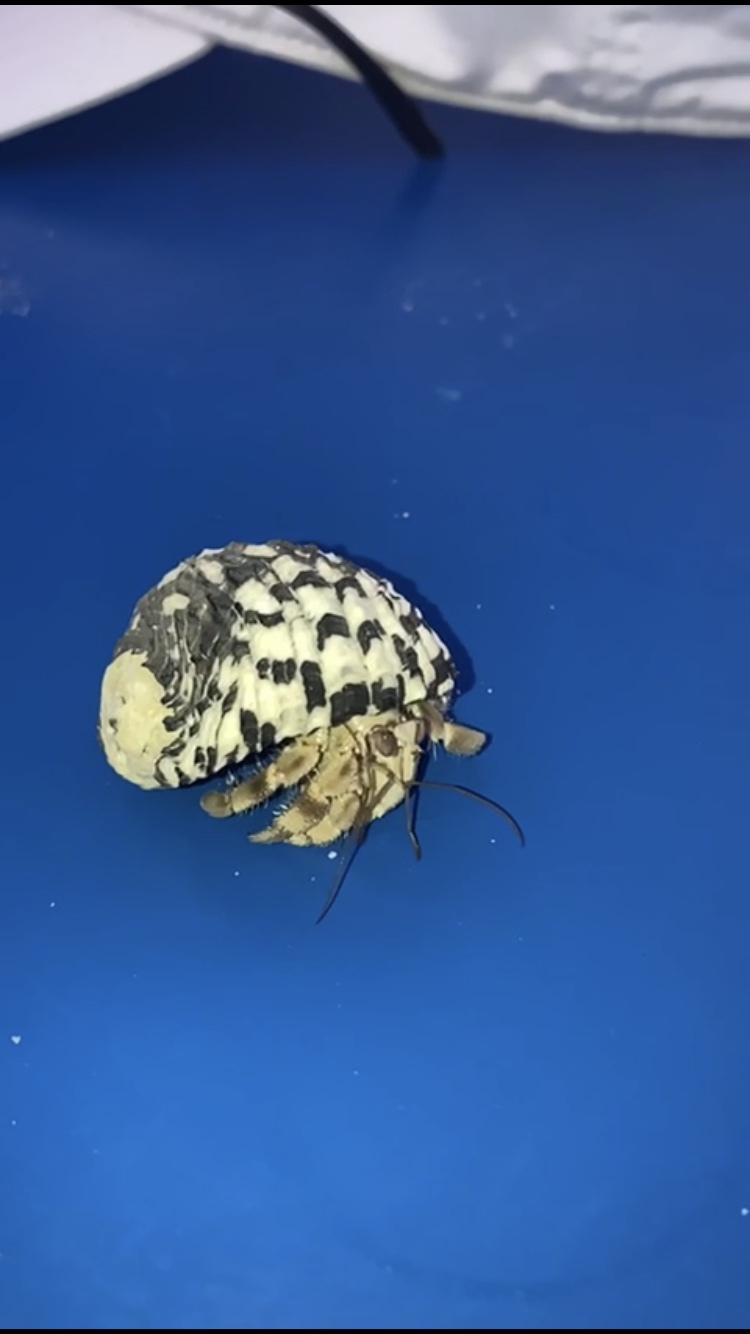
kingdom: Animalia
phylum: Arthropoda
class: Malacostraca
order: Decapoda
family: Coenobitidae
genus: Coenobita
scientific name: Coenobita scaevola
